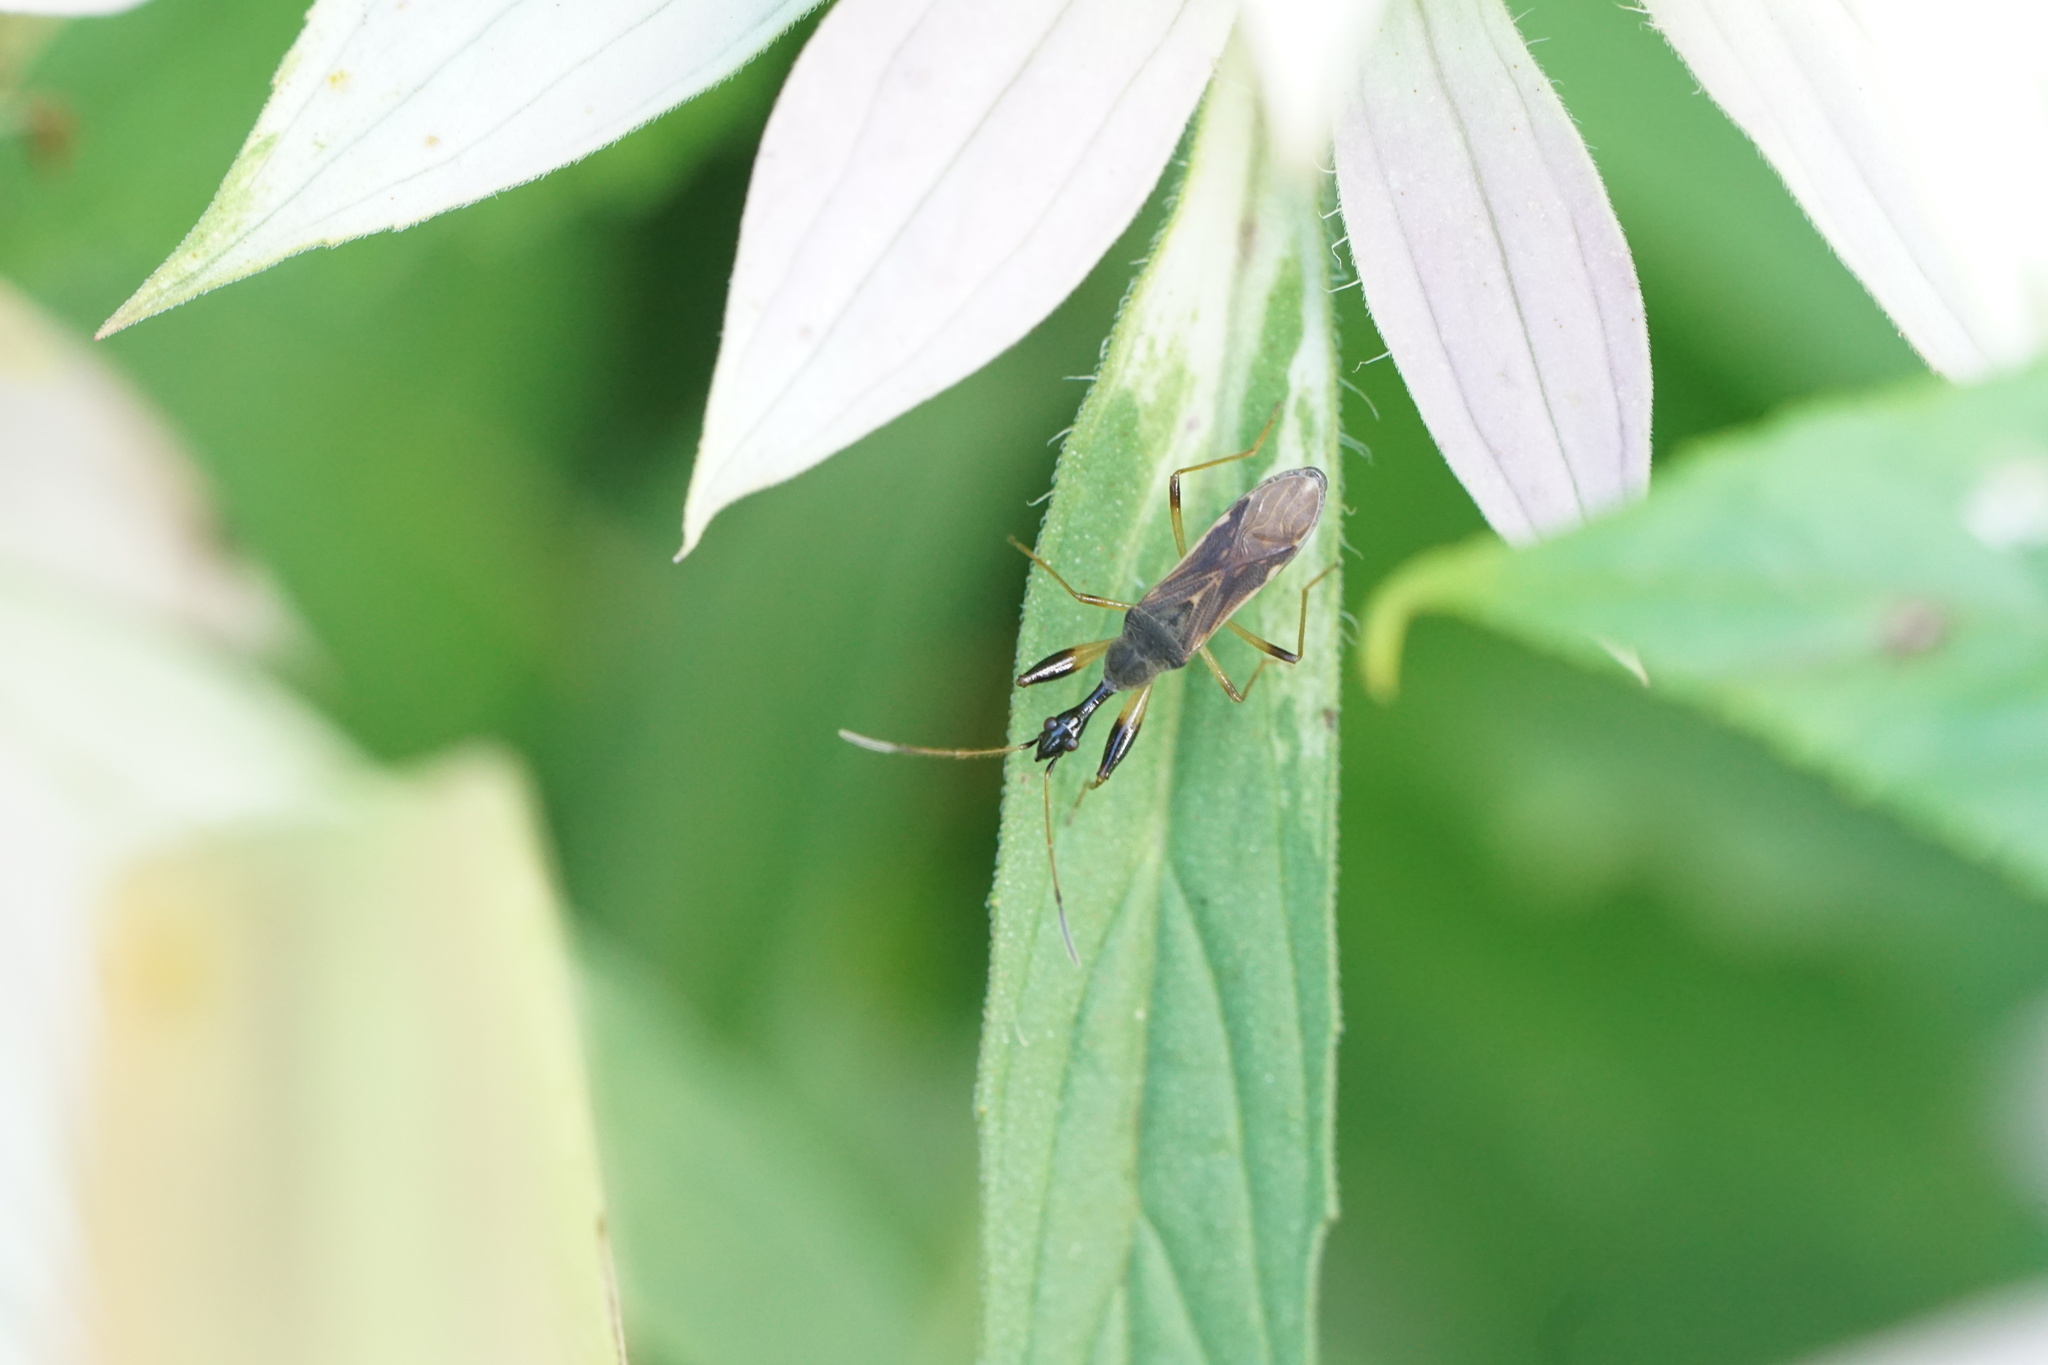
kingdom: Animalia
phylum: Arthropoda
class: Insecta
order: Hemiptera
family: Rhyparochromidae
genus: Myodocha
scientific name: Myodocha serripes
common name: Long-necked seed bug
